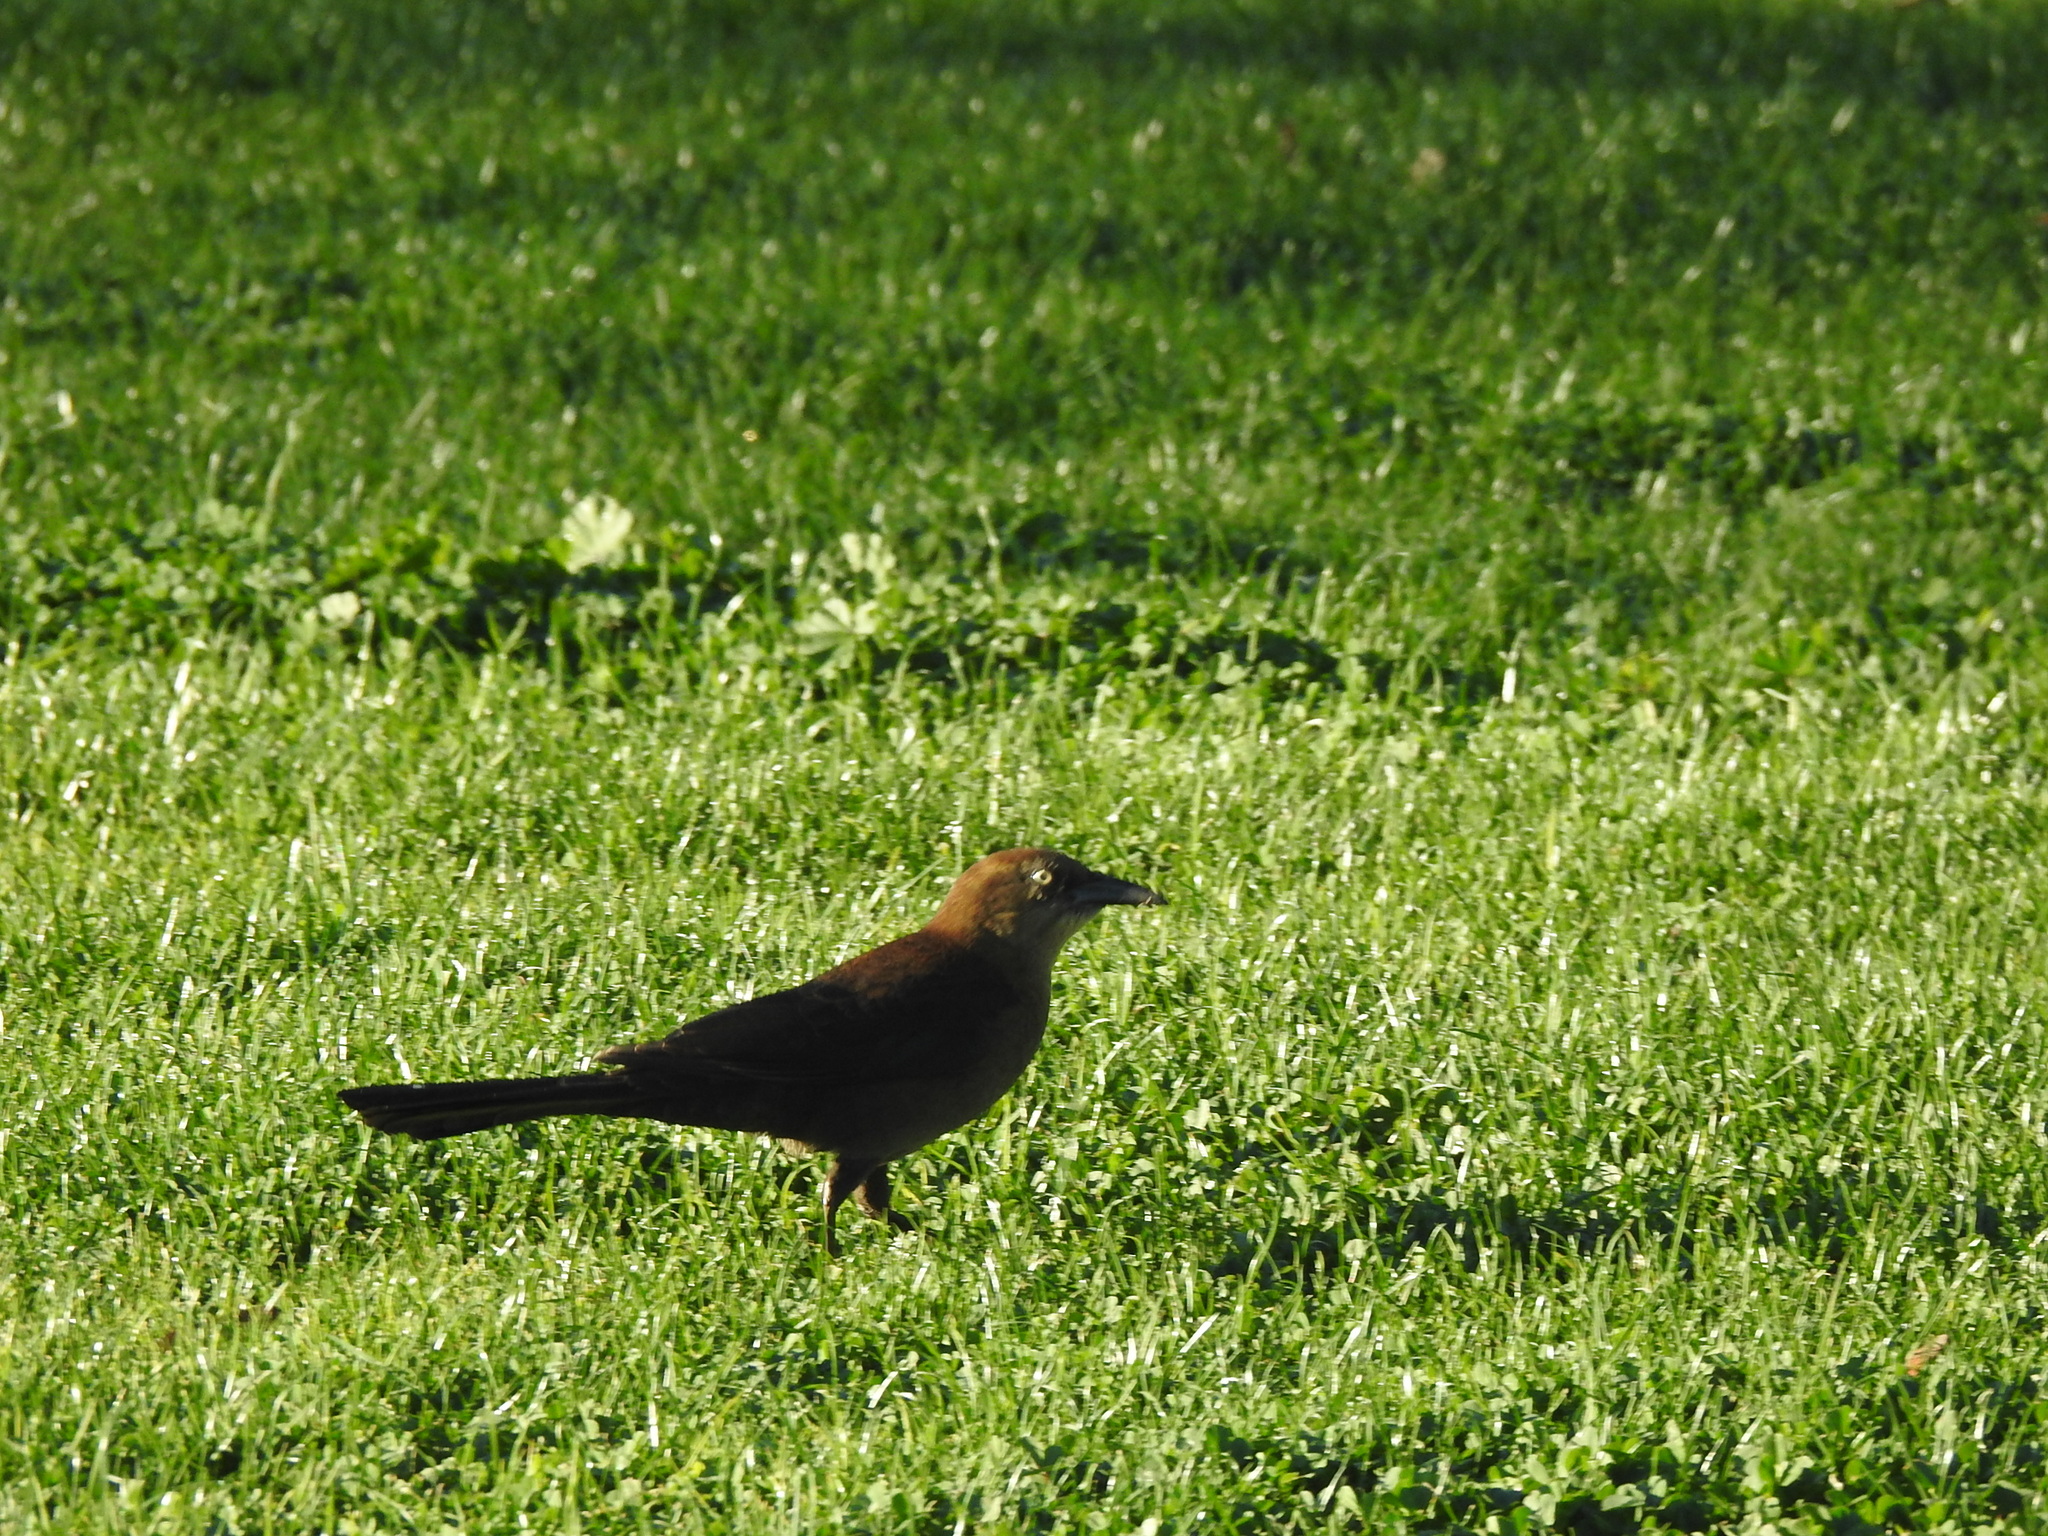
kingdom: Animalia
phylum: Chordata
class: Aves
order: Passeriformes
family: Icteridae
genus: Quiscalus
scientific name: Quiscalus mexicanus
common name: Great-tailed grackle
